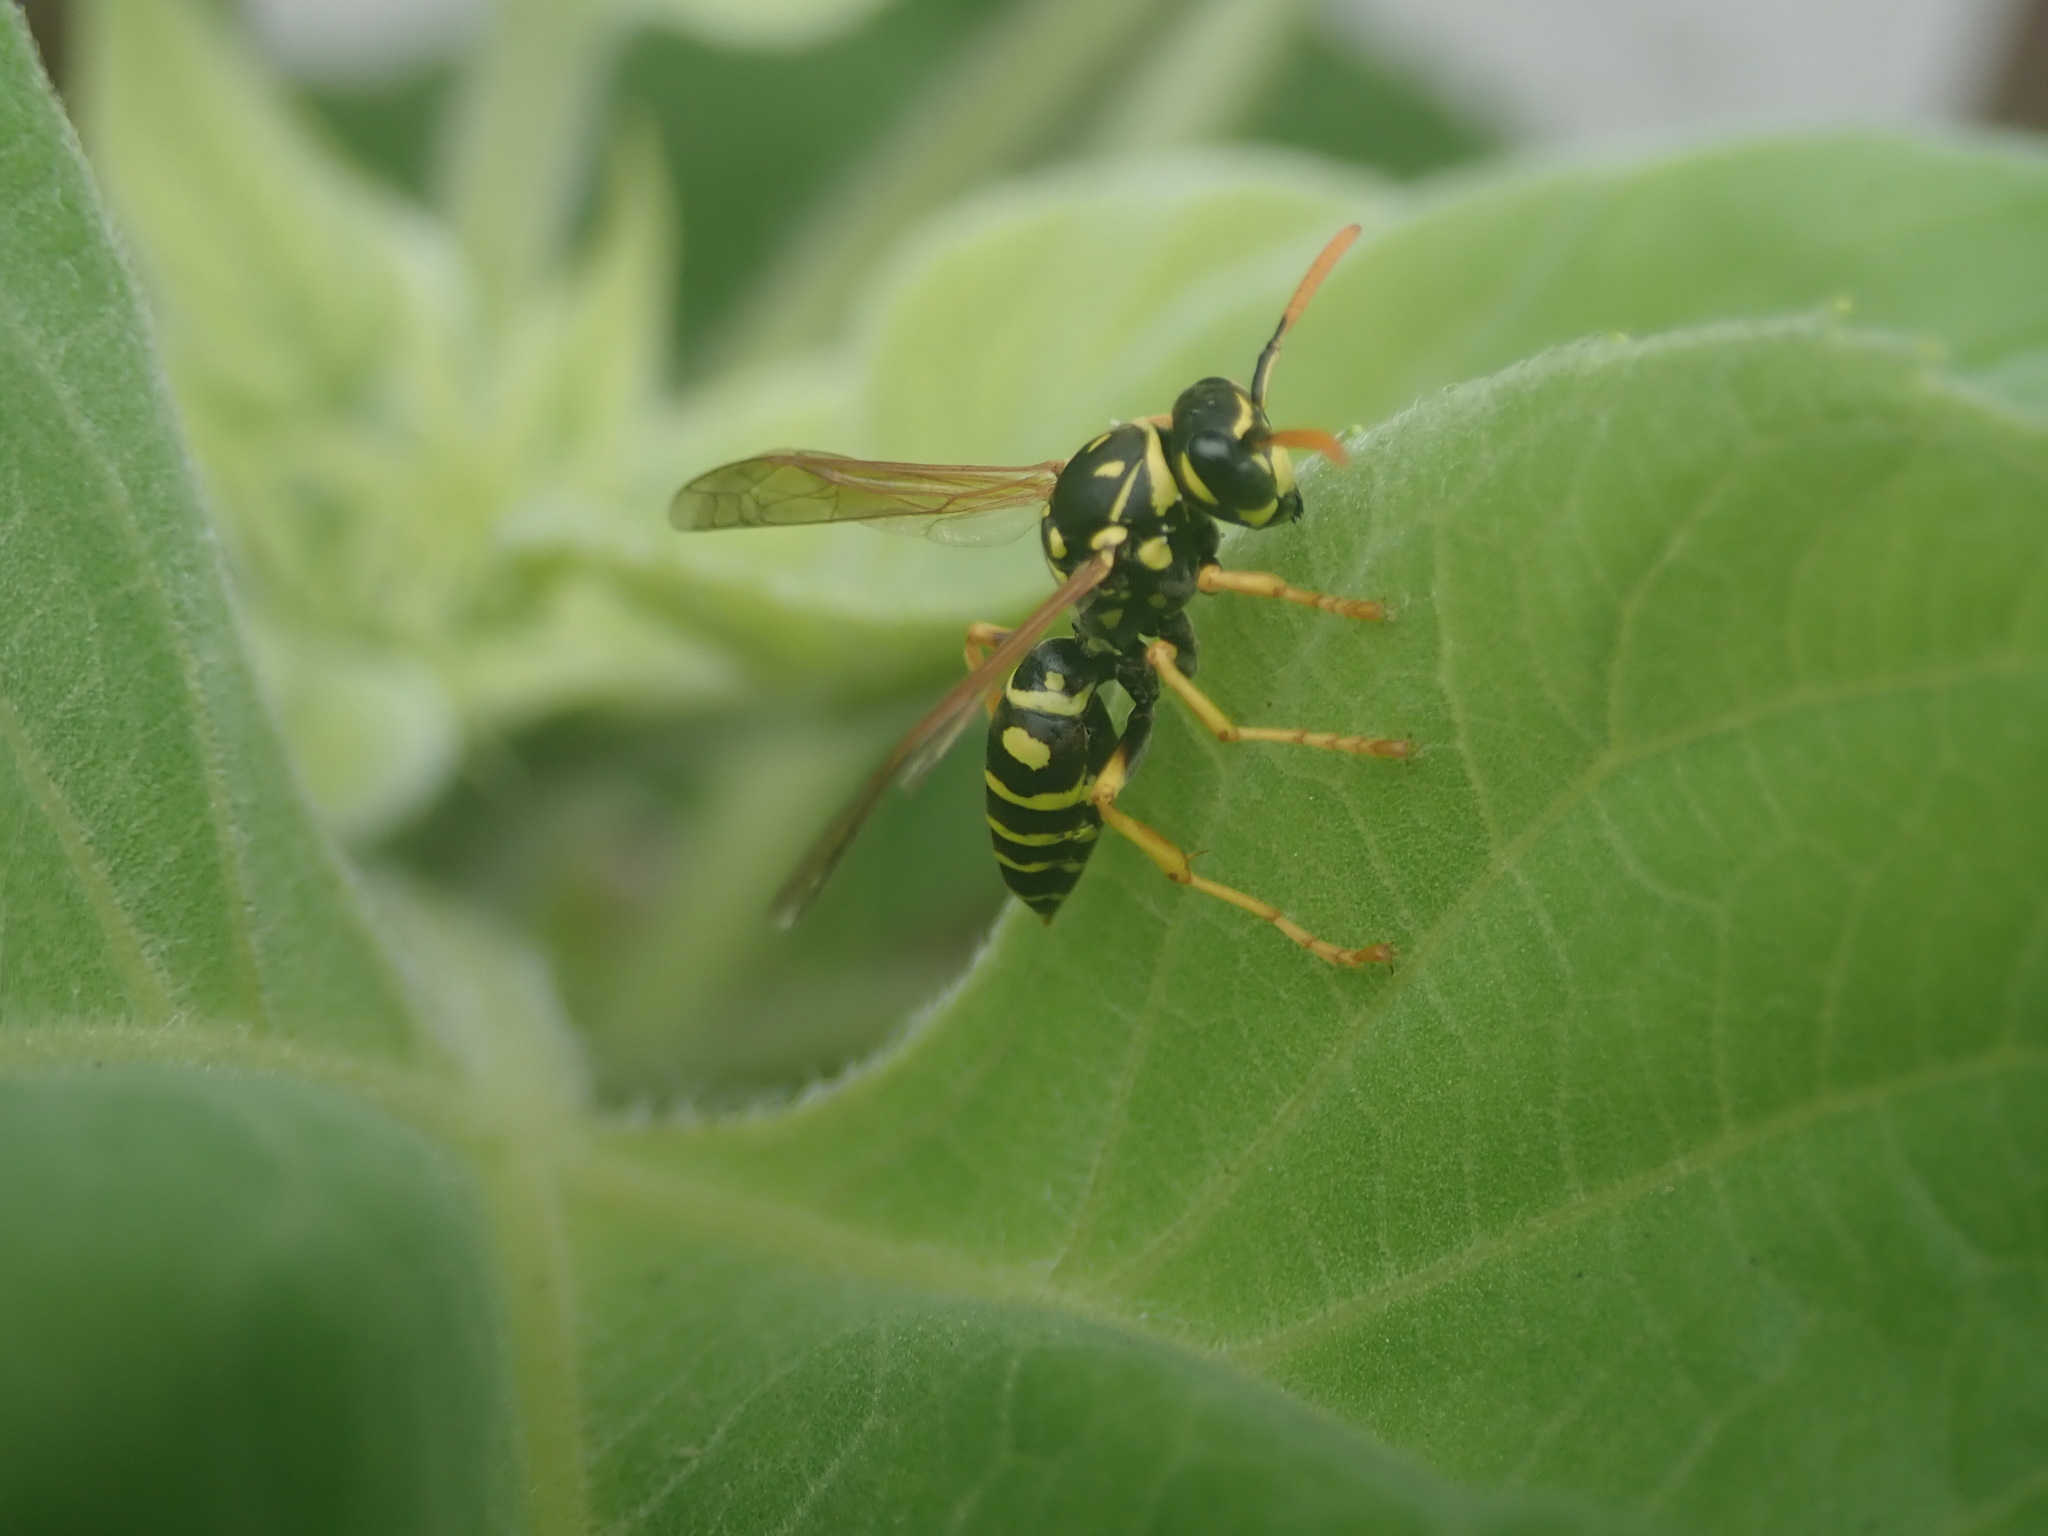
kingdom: Animalia
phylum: Arthropoda
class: Insecta
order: Hymenoptera
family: Eumenidae
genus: Polistes
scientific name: Polistes dominula
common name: Paper wasp
